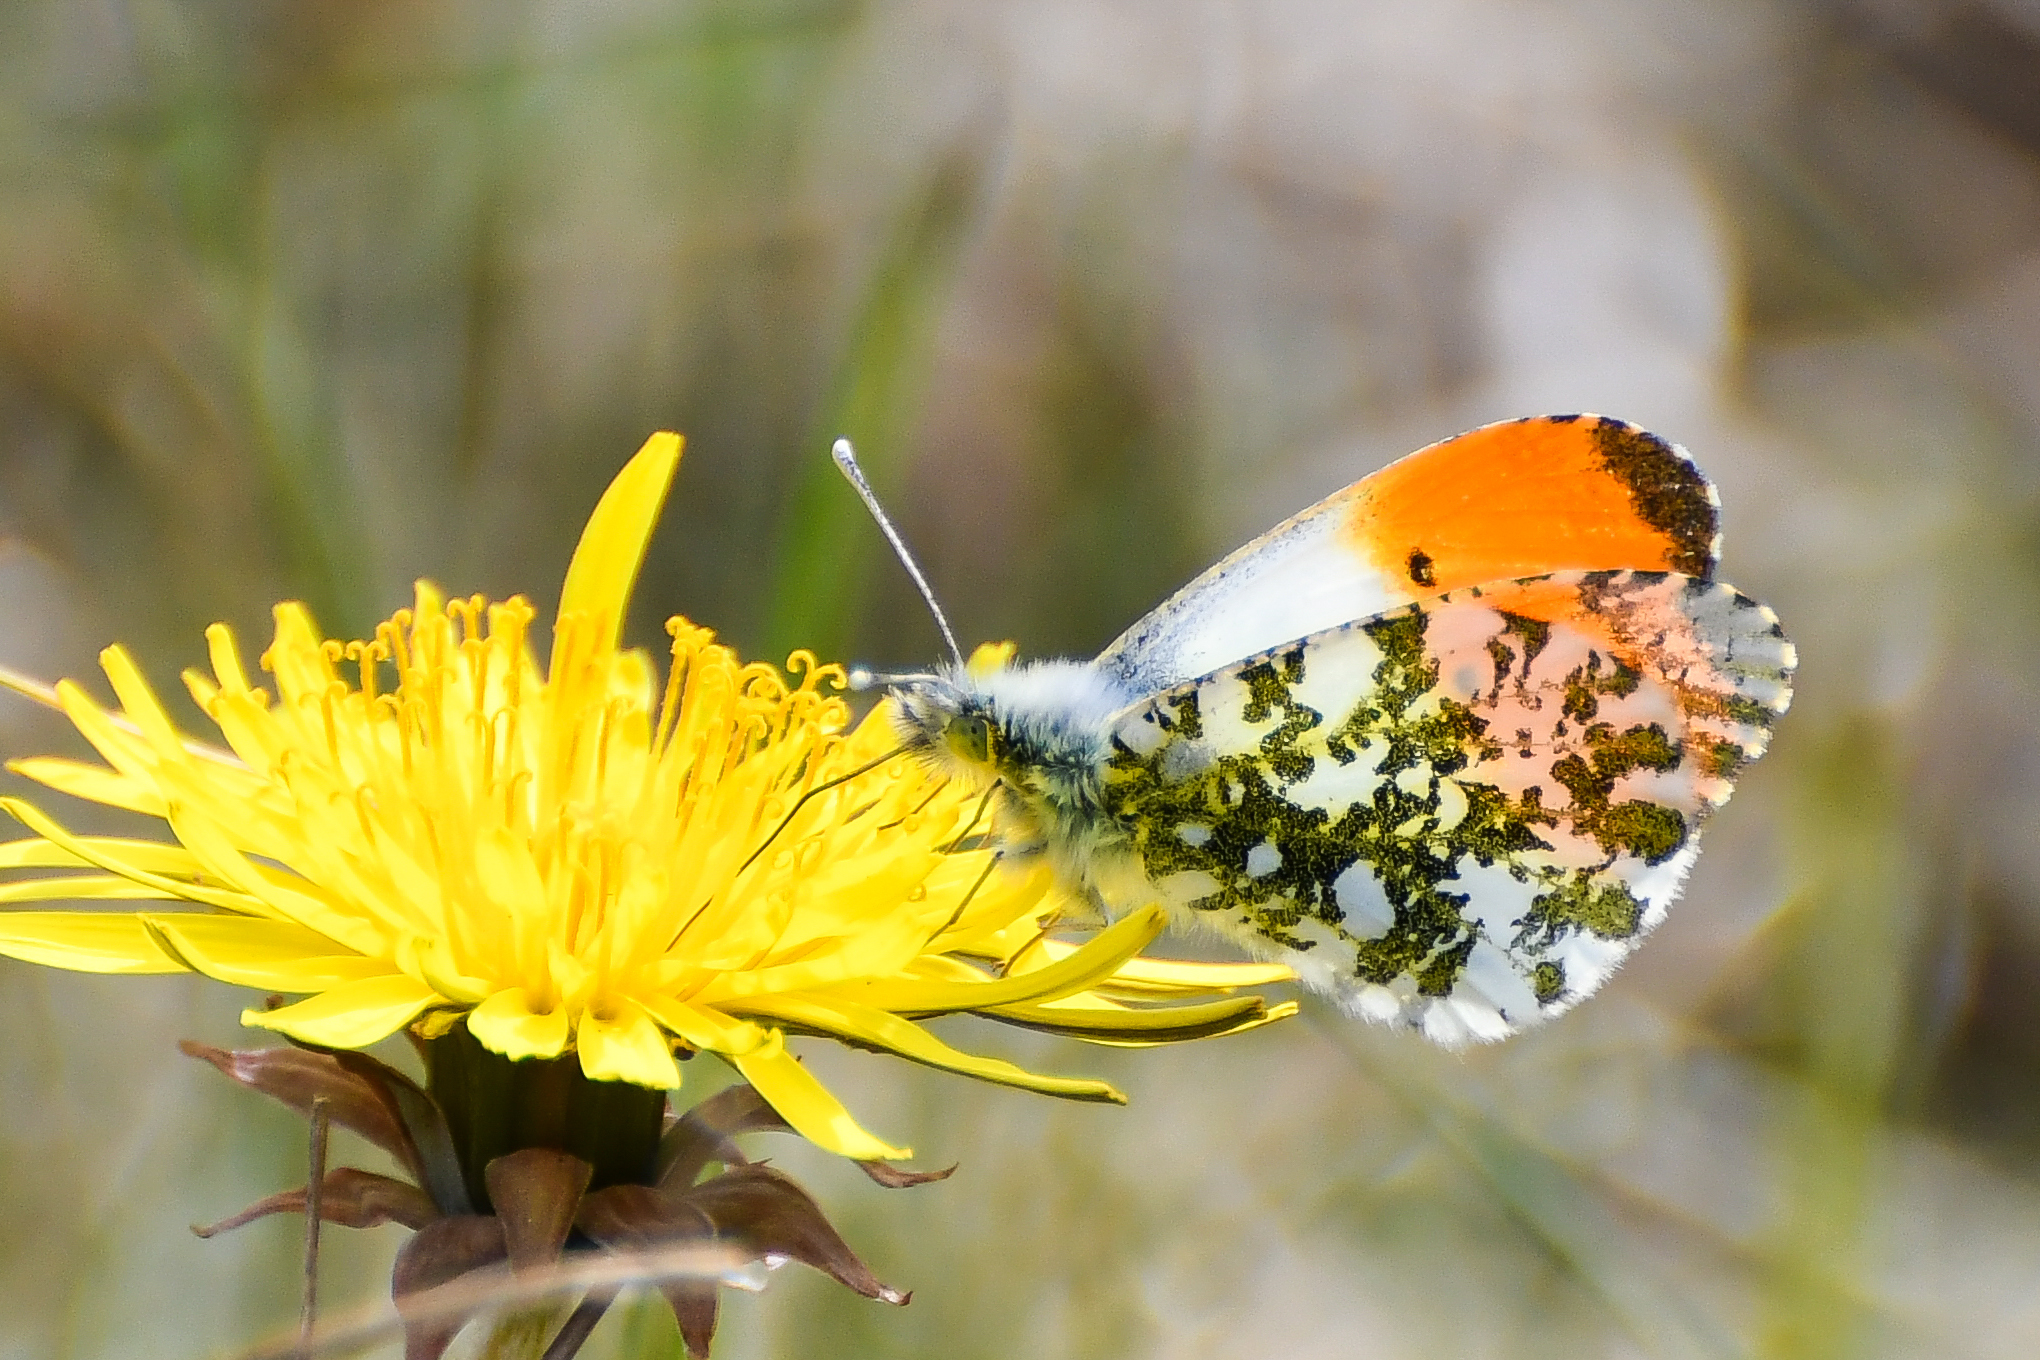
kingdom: Animalia
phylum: Arthropoda
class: Insecta
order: Lepidoptera
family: Pieridae
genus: Anthocharis
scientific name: Anthocharis cardamines
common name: Orange-tip
